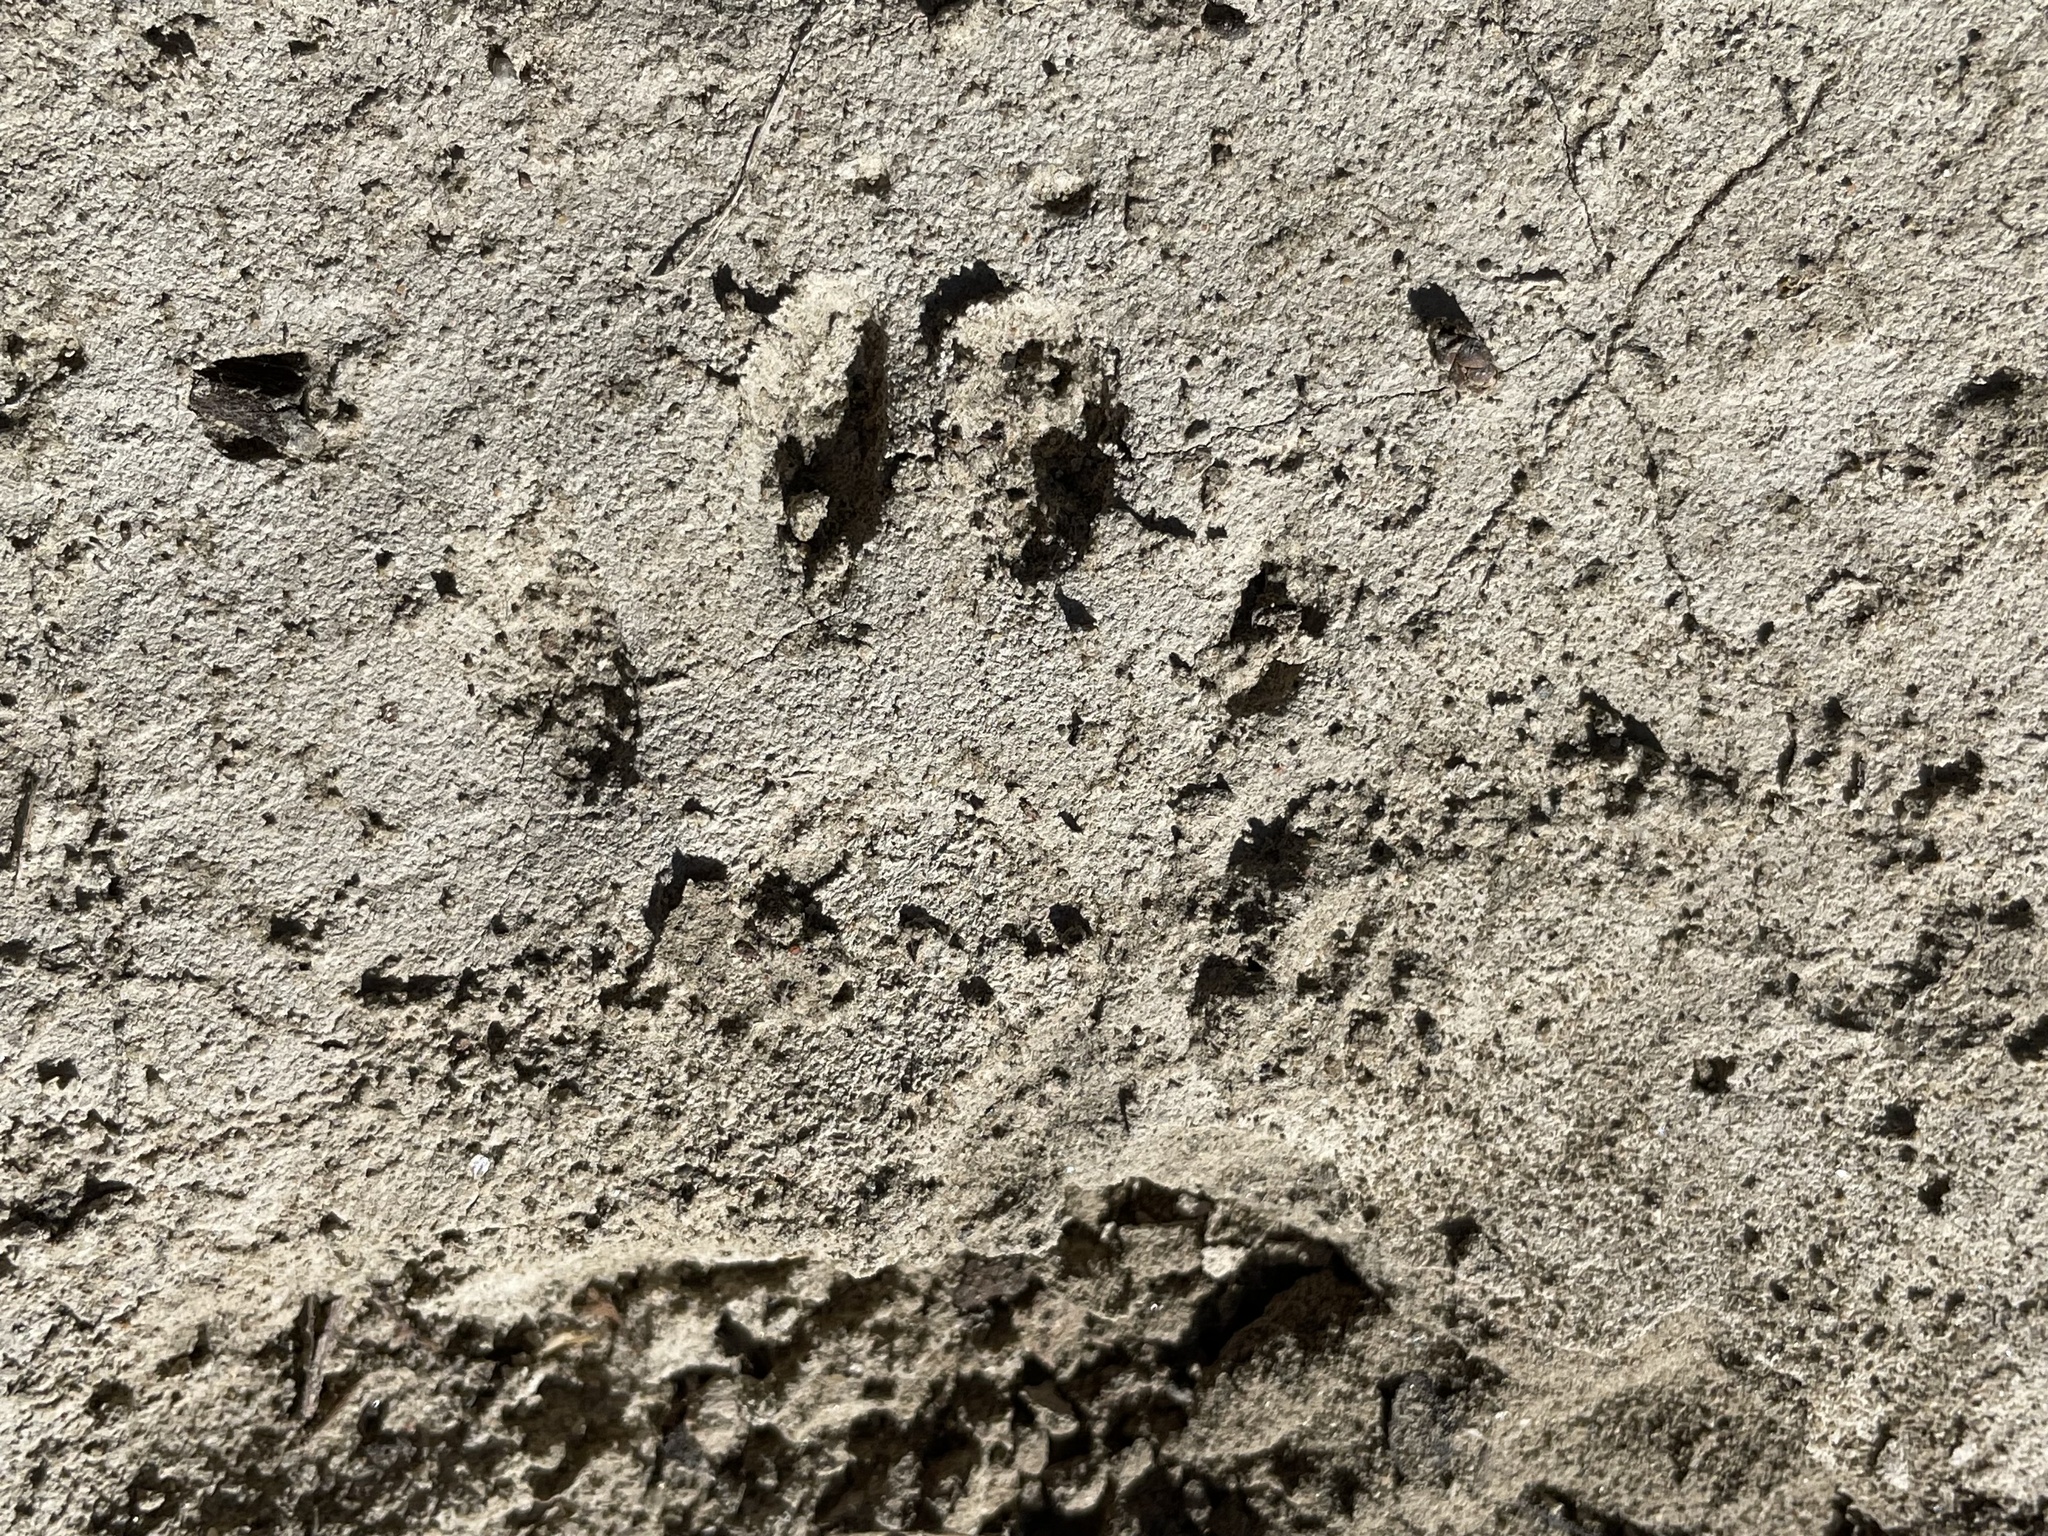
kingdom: Animalia
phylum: Chordata
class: Mammalia
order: Carnivora
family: Procyonidae
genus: Procyon
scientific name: Procyon lotor
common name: Raccoon
